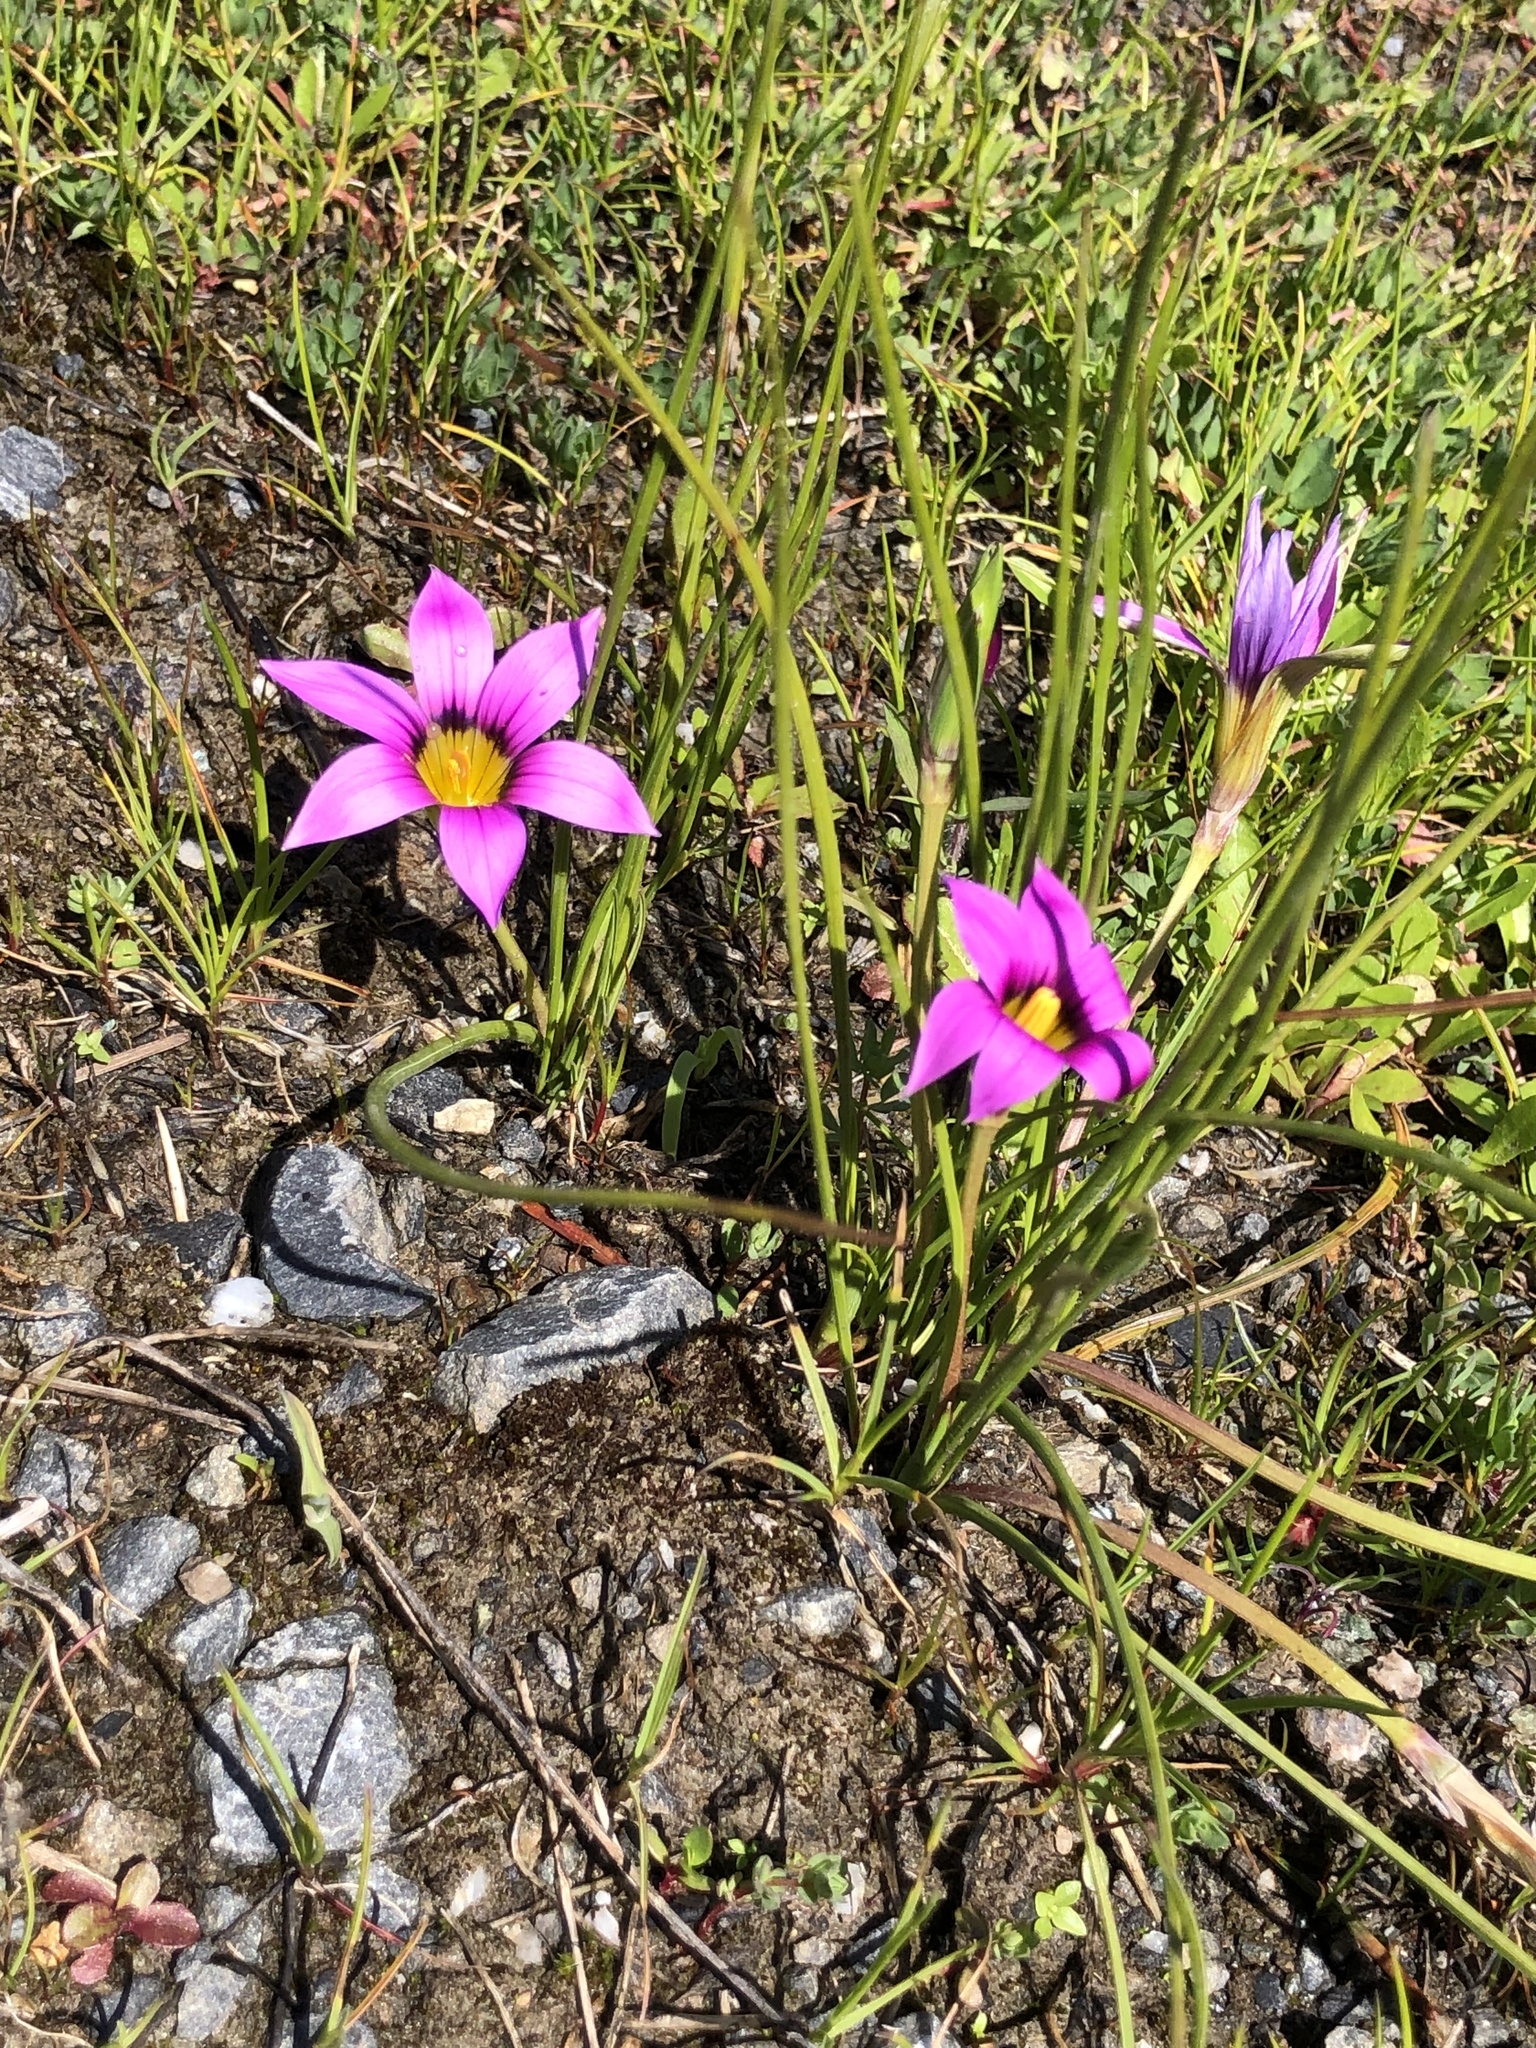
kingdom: Plantae
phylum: Tracheophyta
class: Liliopsida
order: Asparagales
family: Iridaceae
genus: Romulea
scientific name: Romulea rosea
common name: Oniongrass
